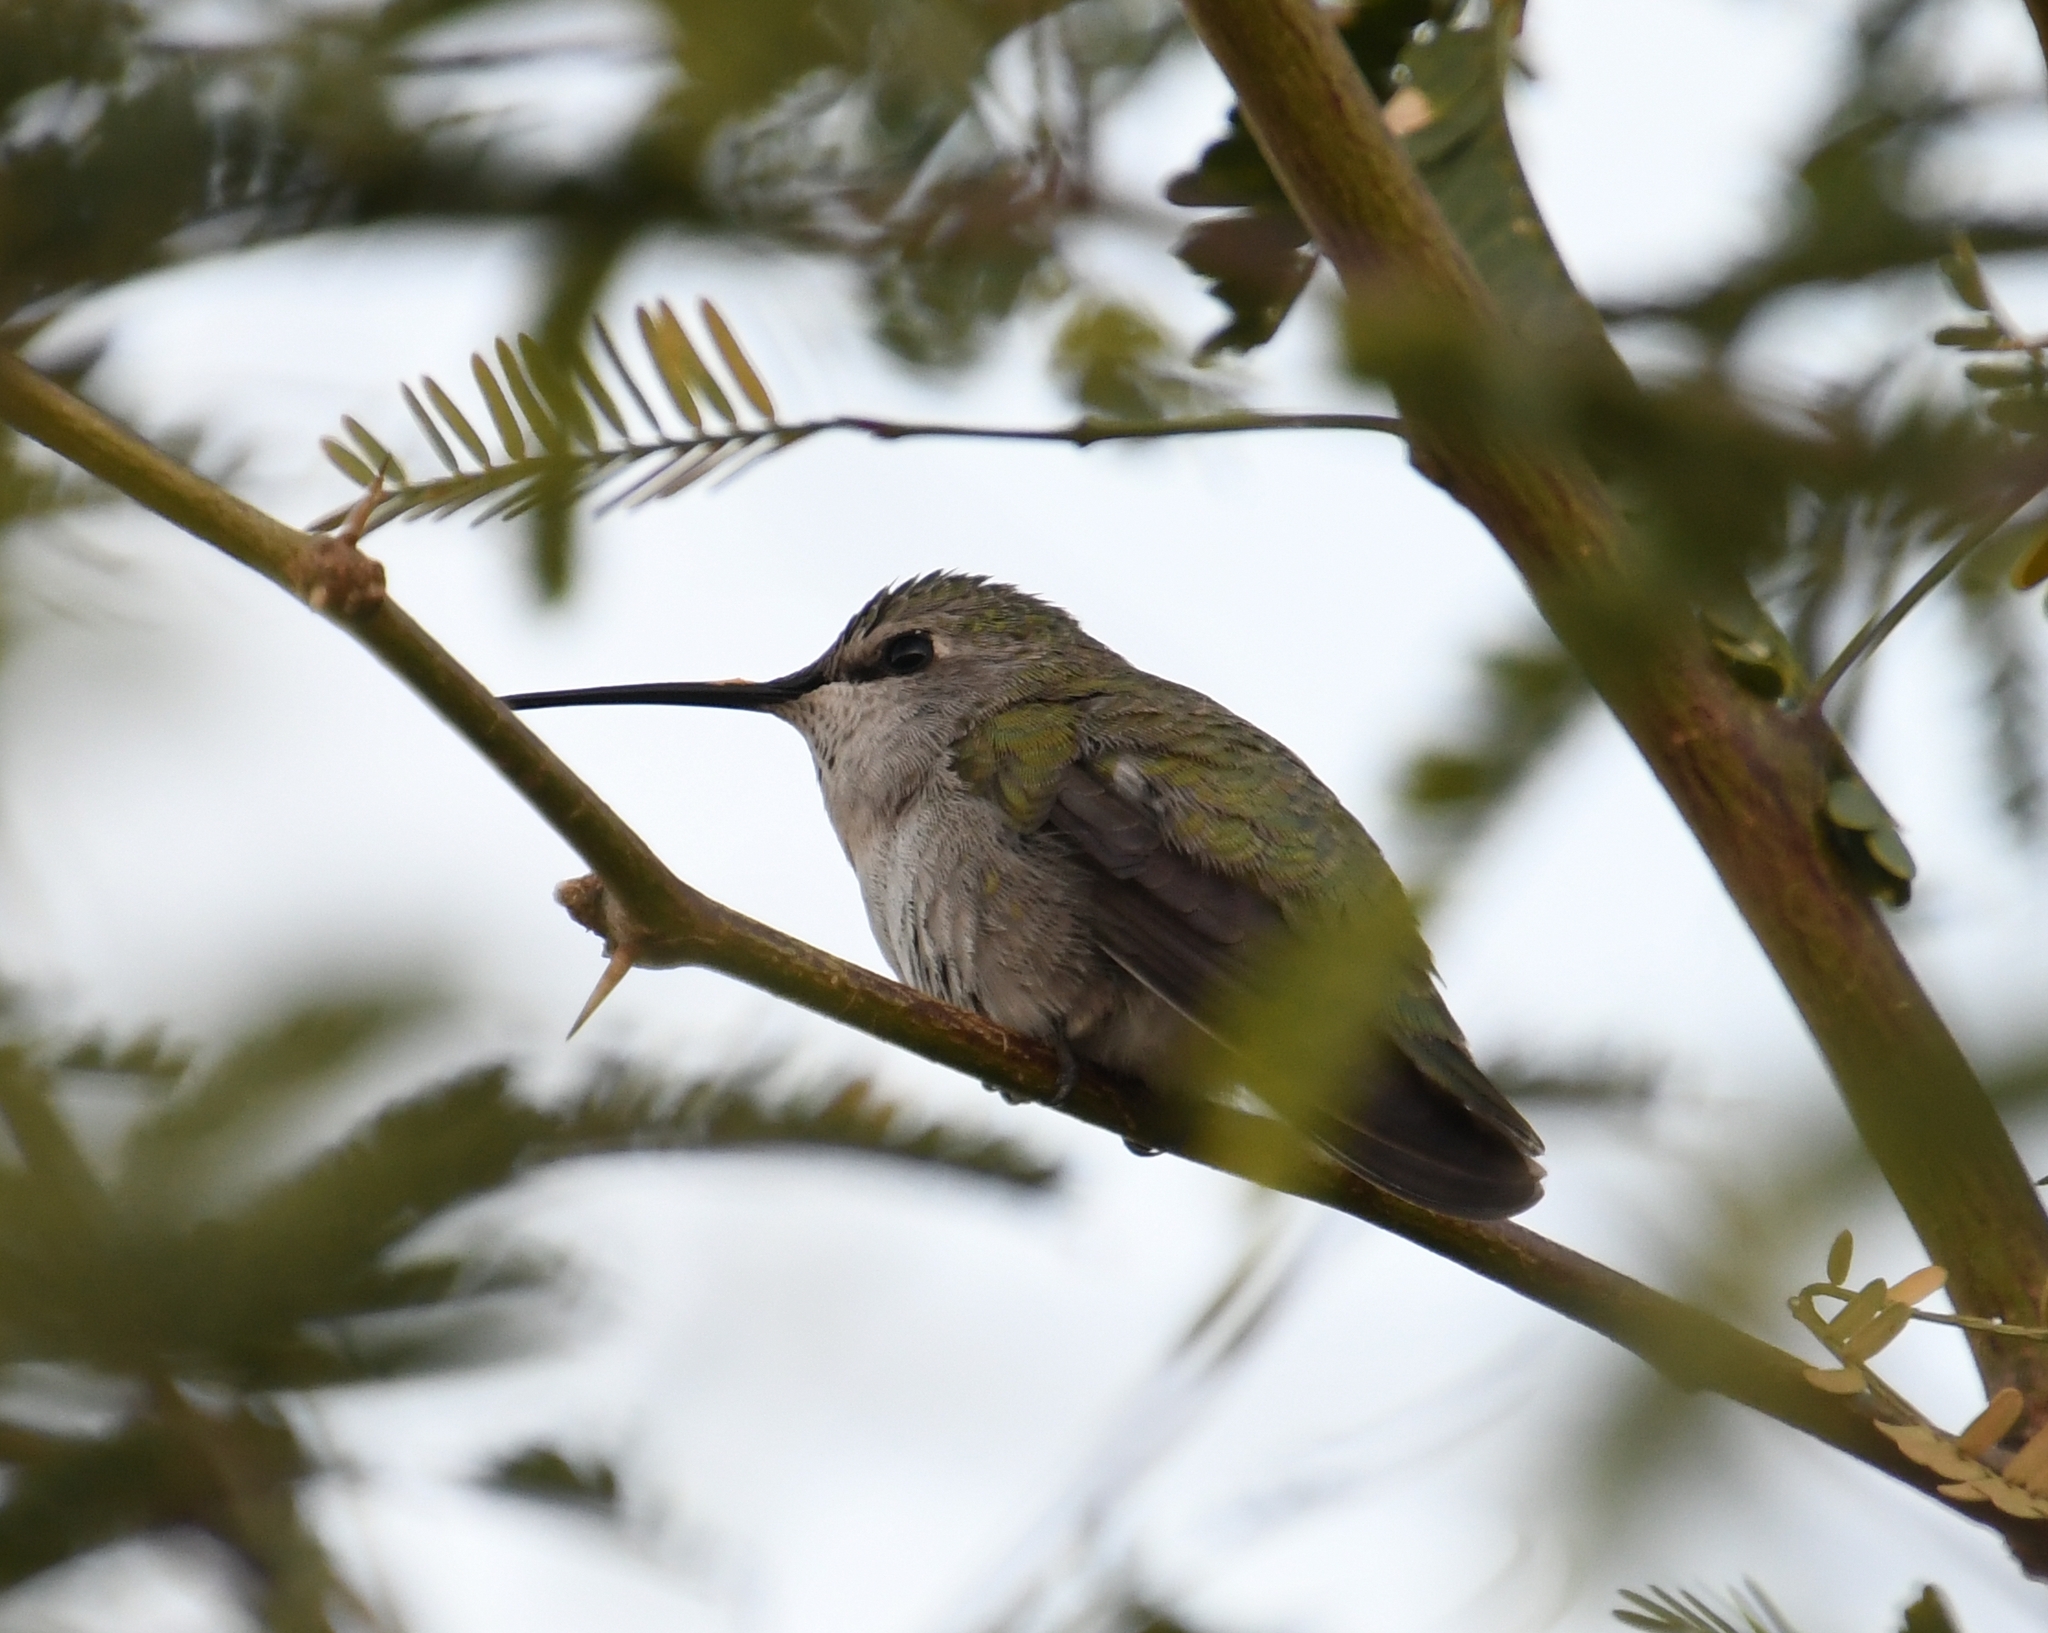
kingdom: Animalia
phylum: Chordata
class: Aves
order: Apodiformes
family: Trochilidae
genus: Calypte
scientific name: Calypte costae
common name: Costa's hummingbird
